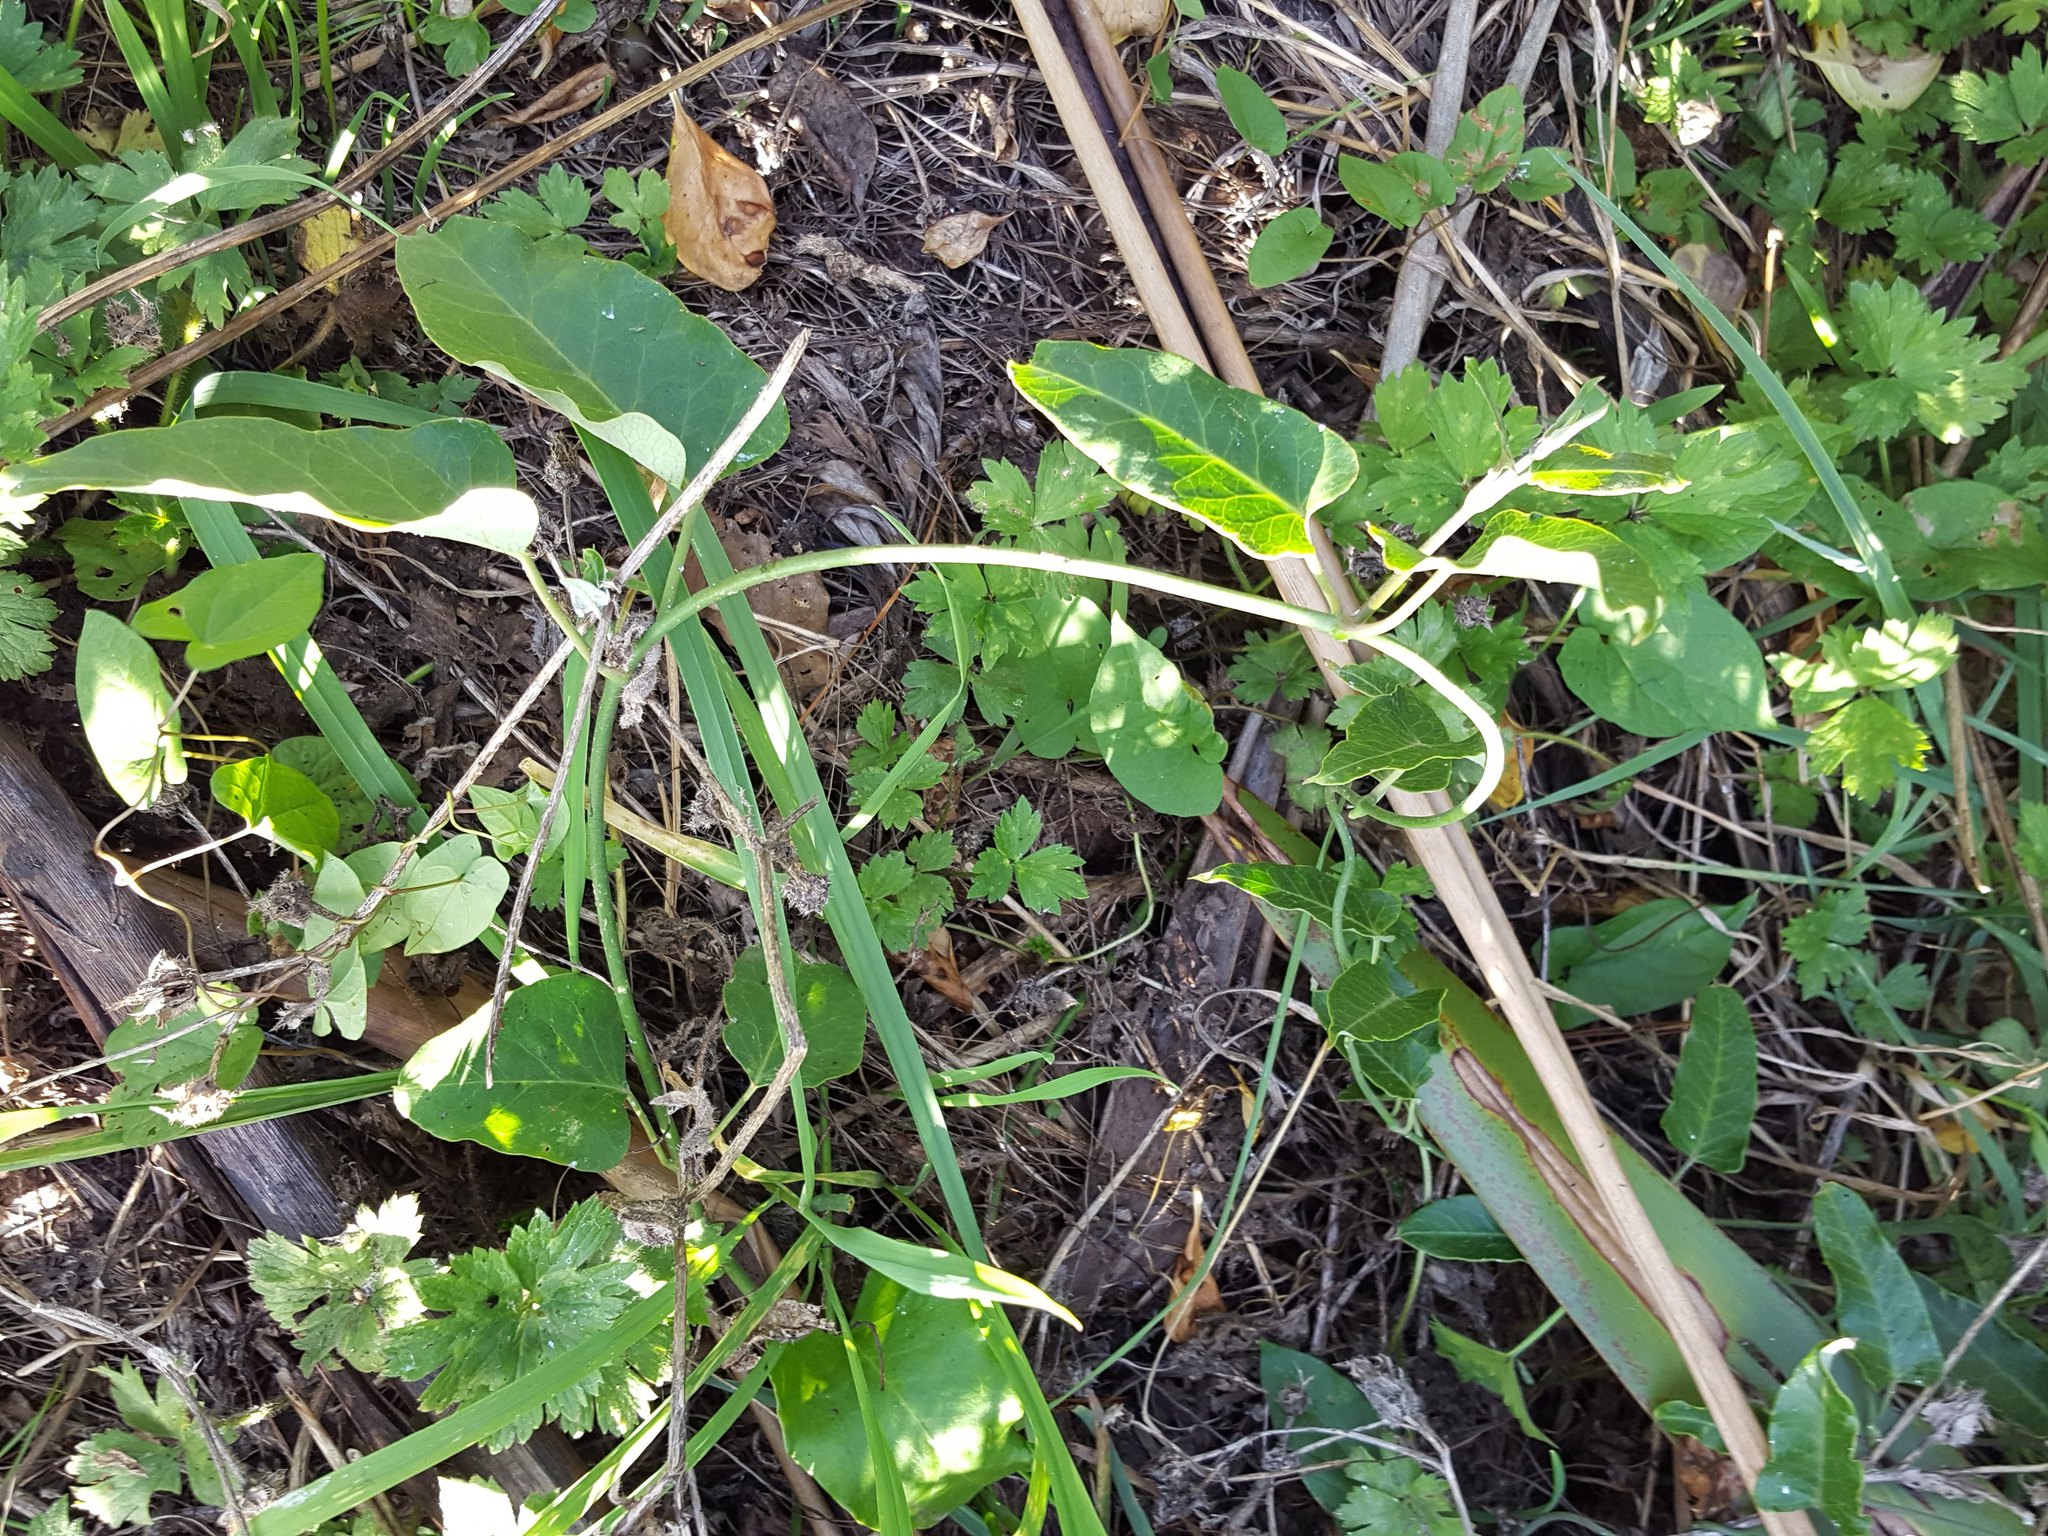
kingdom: Plantae
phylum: Tracheophyta
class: Magnoliopsida
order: Gentianales
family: Apocynaceae
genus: Araujia
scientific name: Araujia sericifera
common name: White bladderflower
